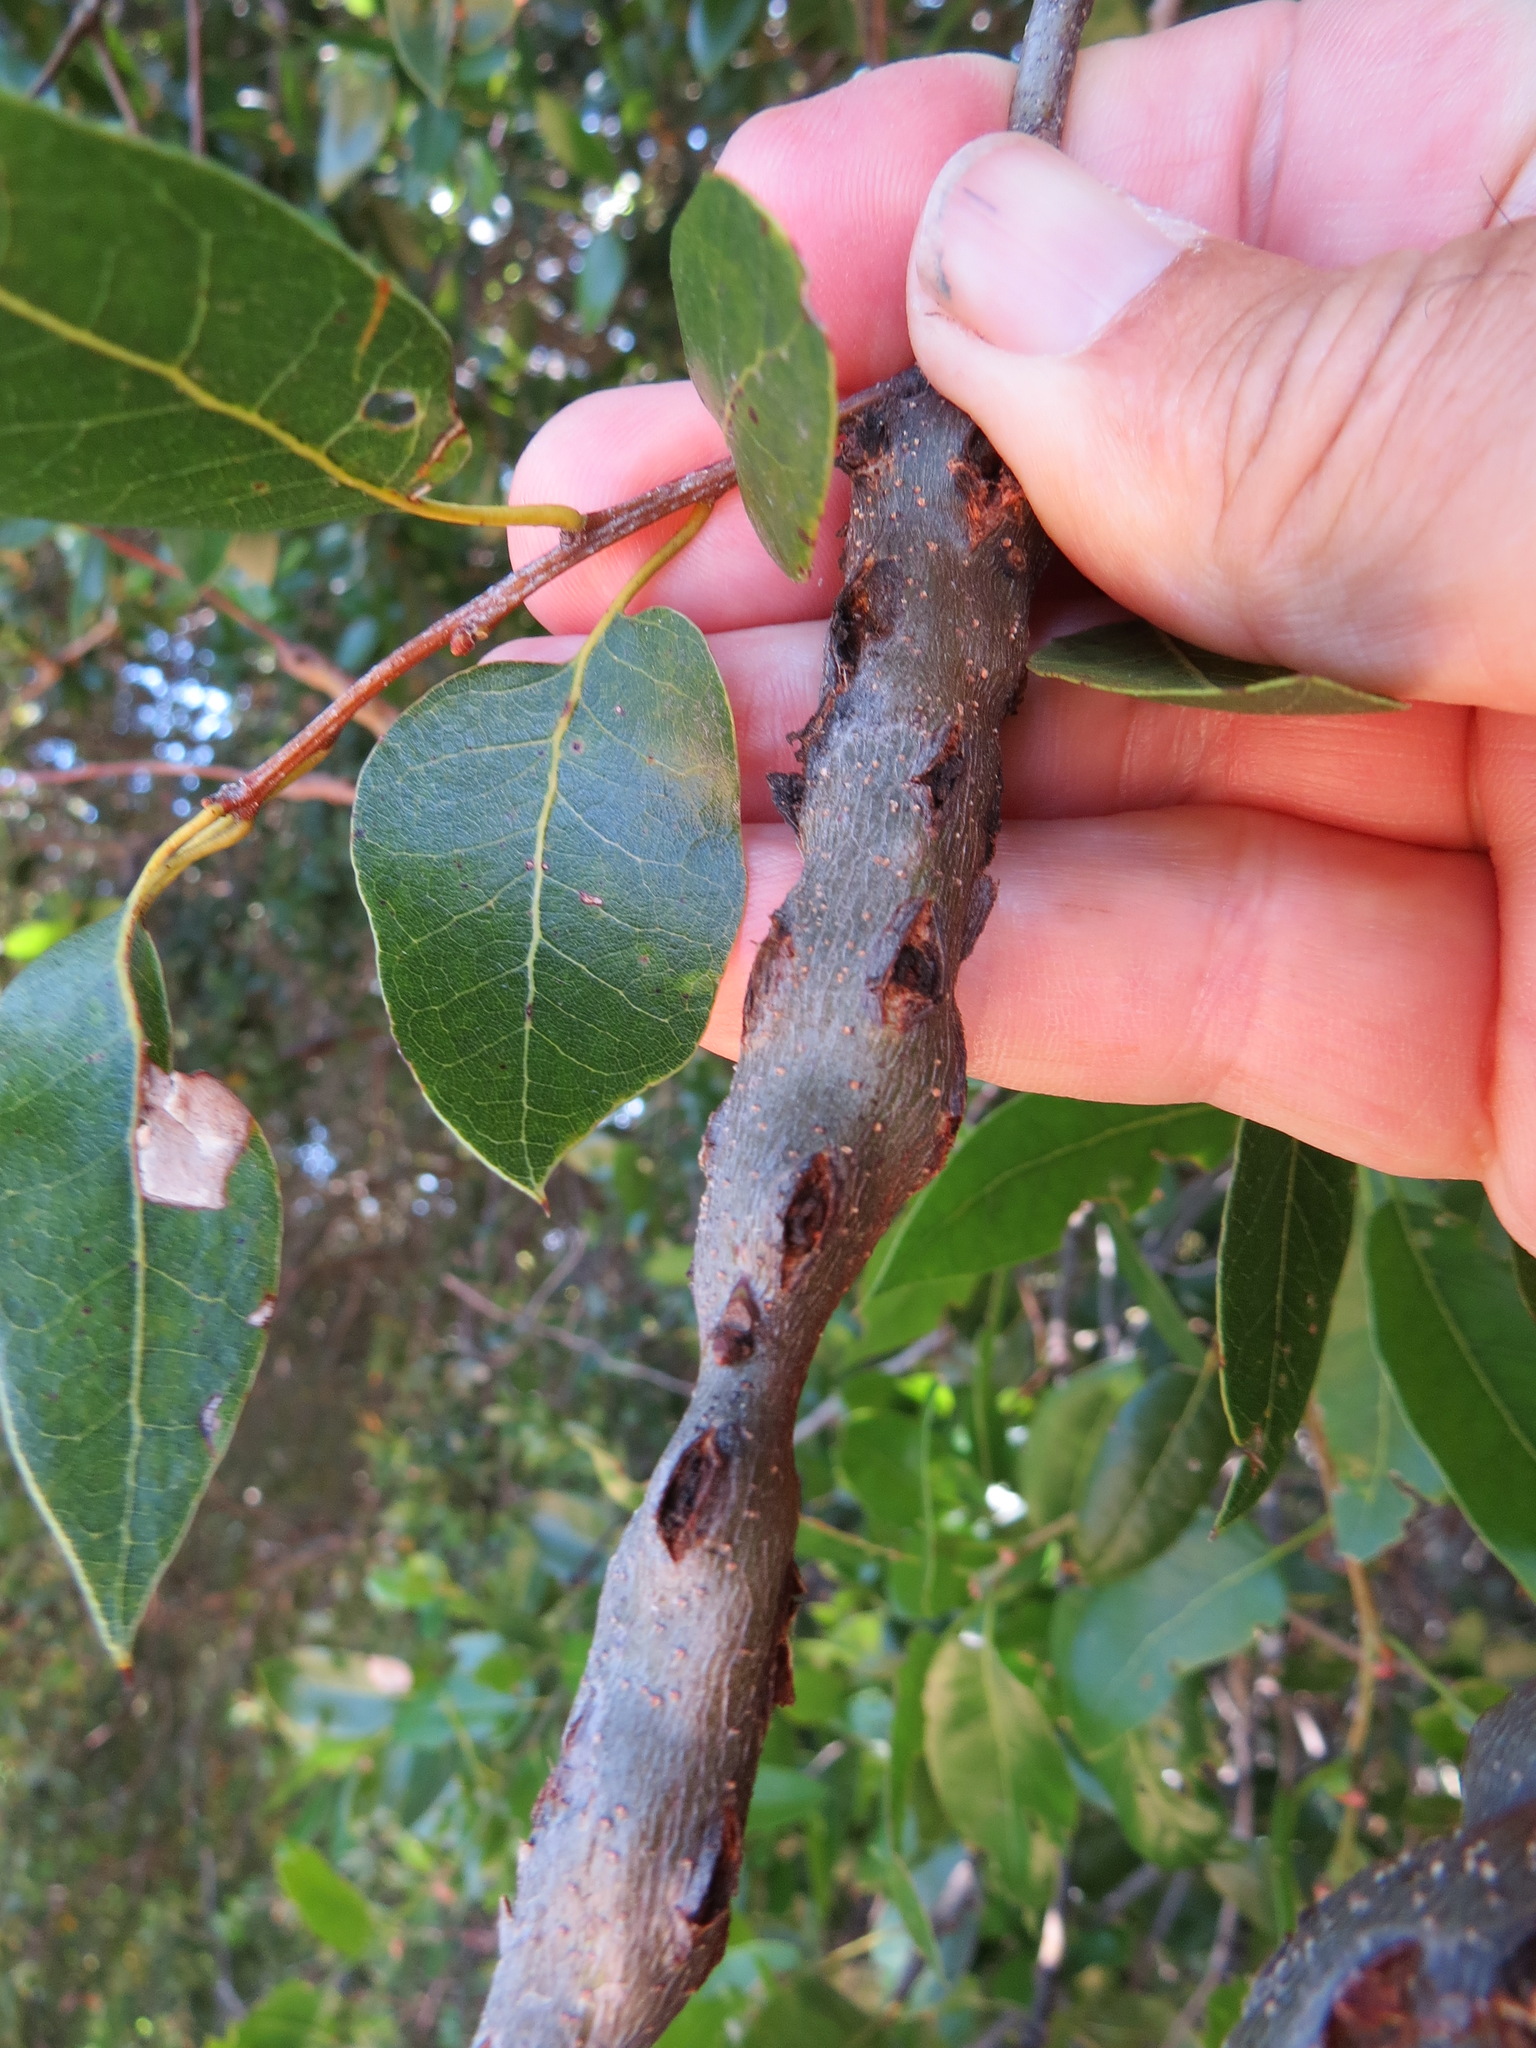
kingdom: Animalia
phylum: Arthropoda
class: Insecta
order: Hymenoptera
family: Cynipidae
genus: Callirhytis
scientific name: Callirhytis
